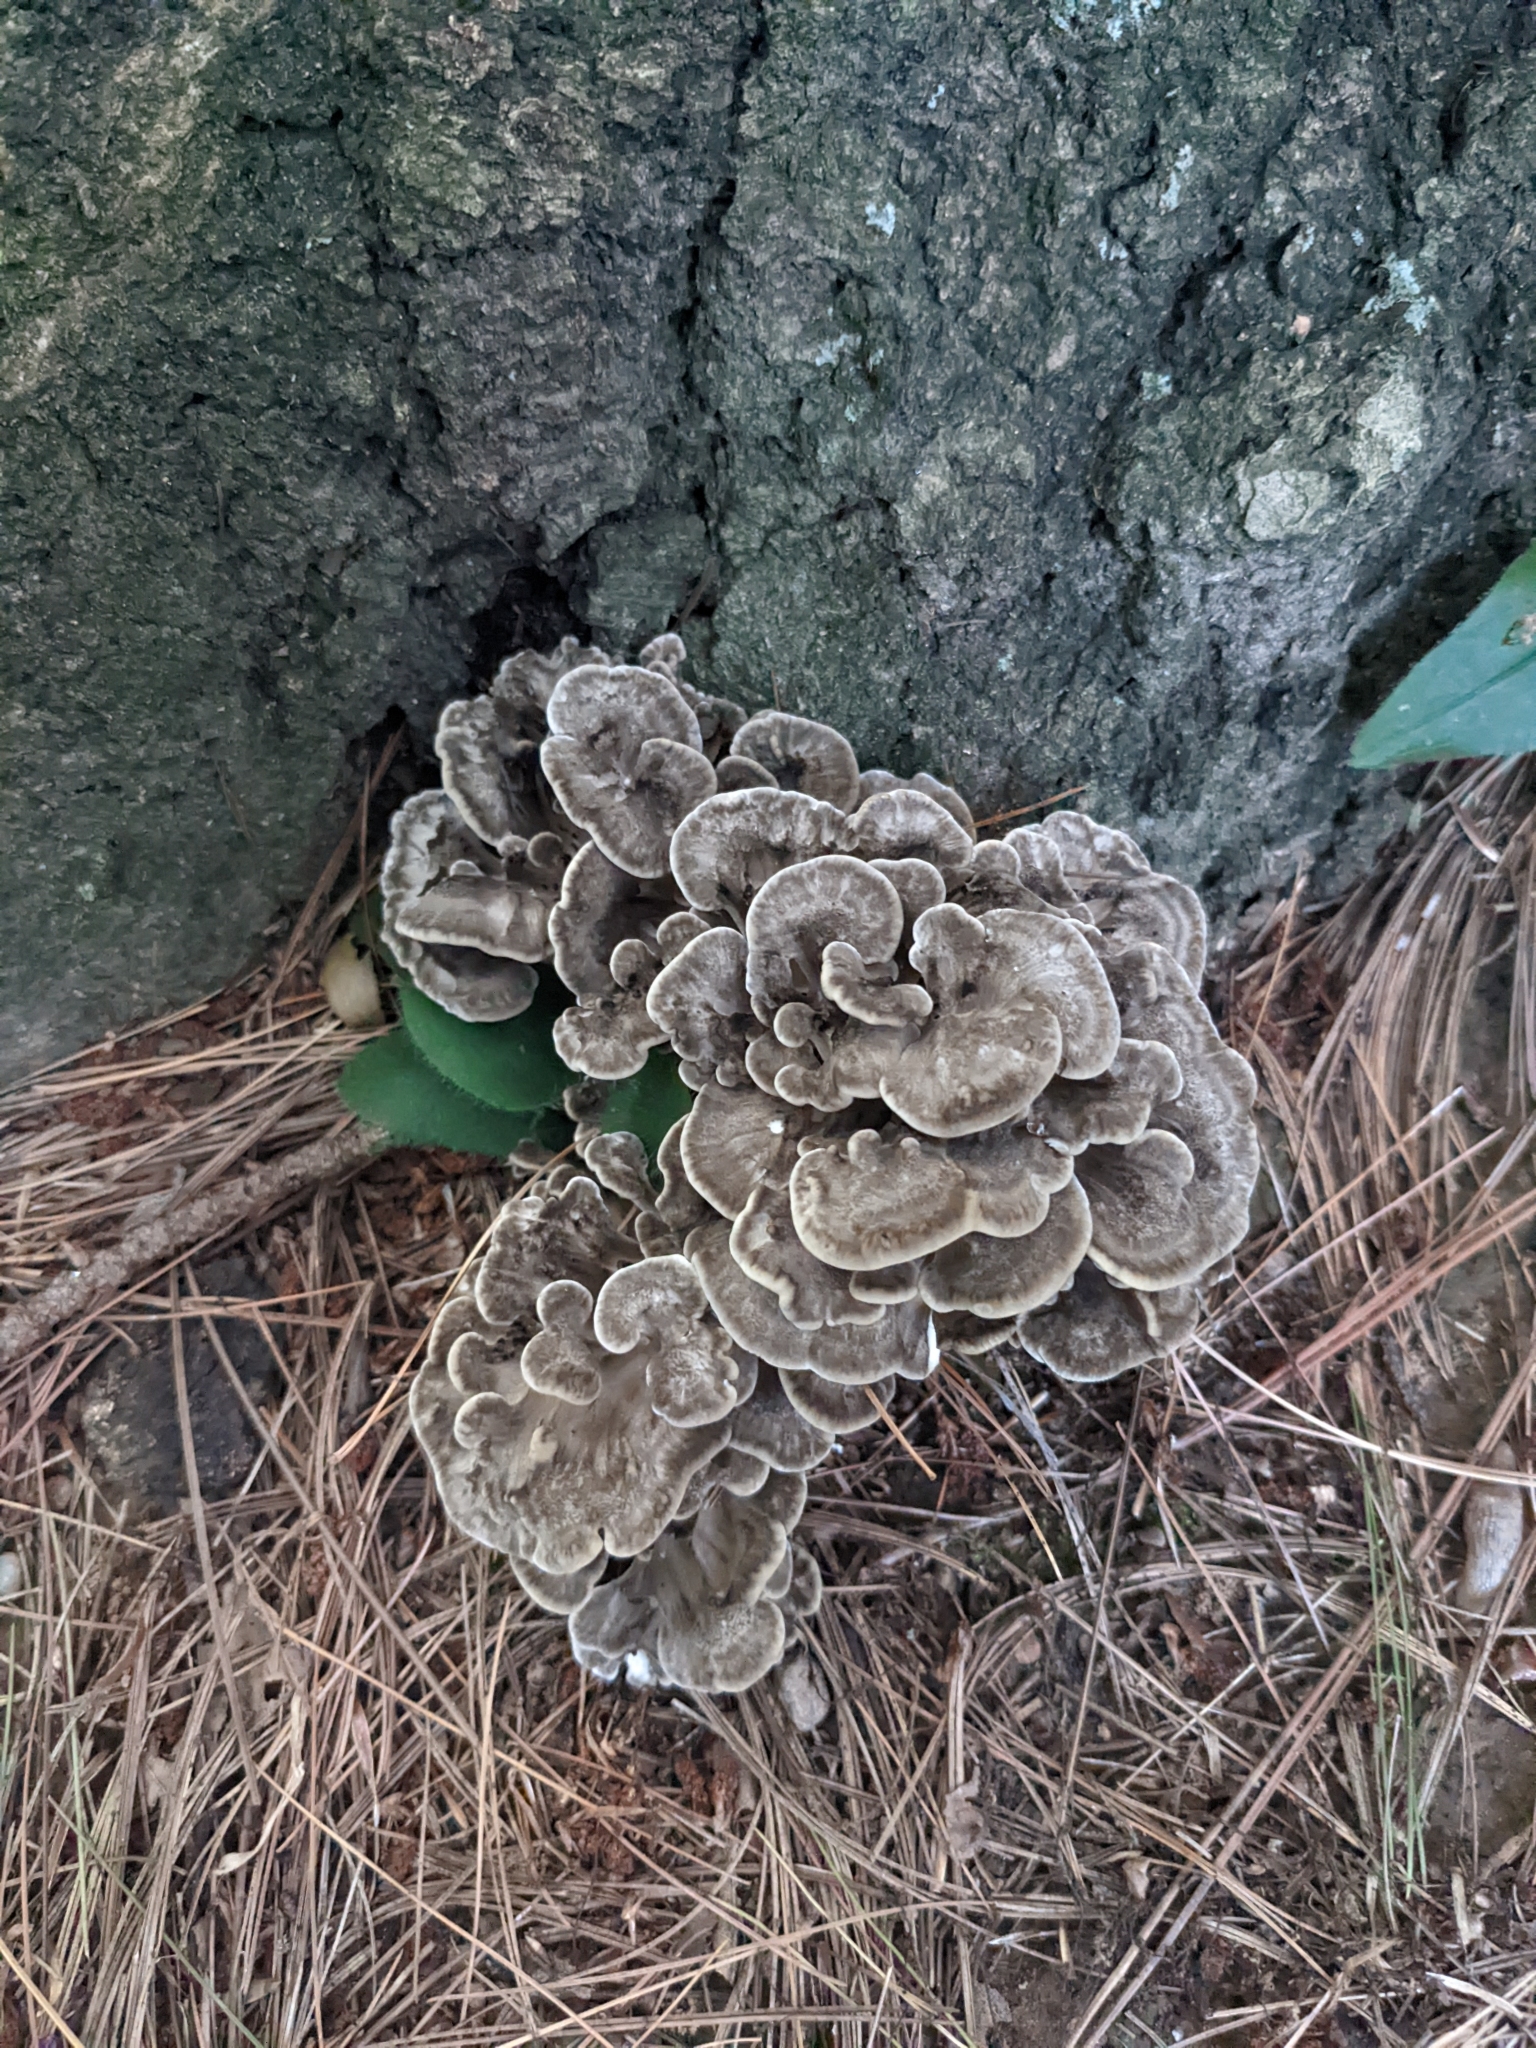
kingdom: Fungi
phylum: Basidiomycota
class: Agaricomycetes
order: Polyporales
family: Grifolaceae
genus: Grifola
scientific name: Grifola frondosa
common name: Hen of the woods
